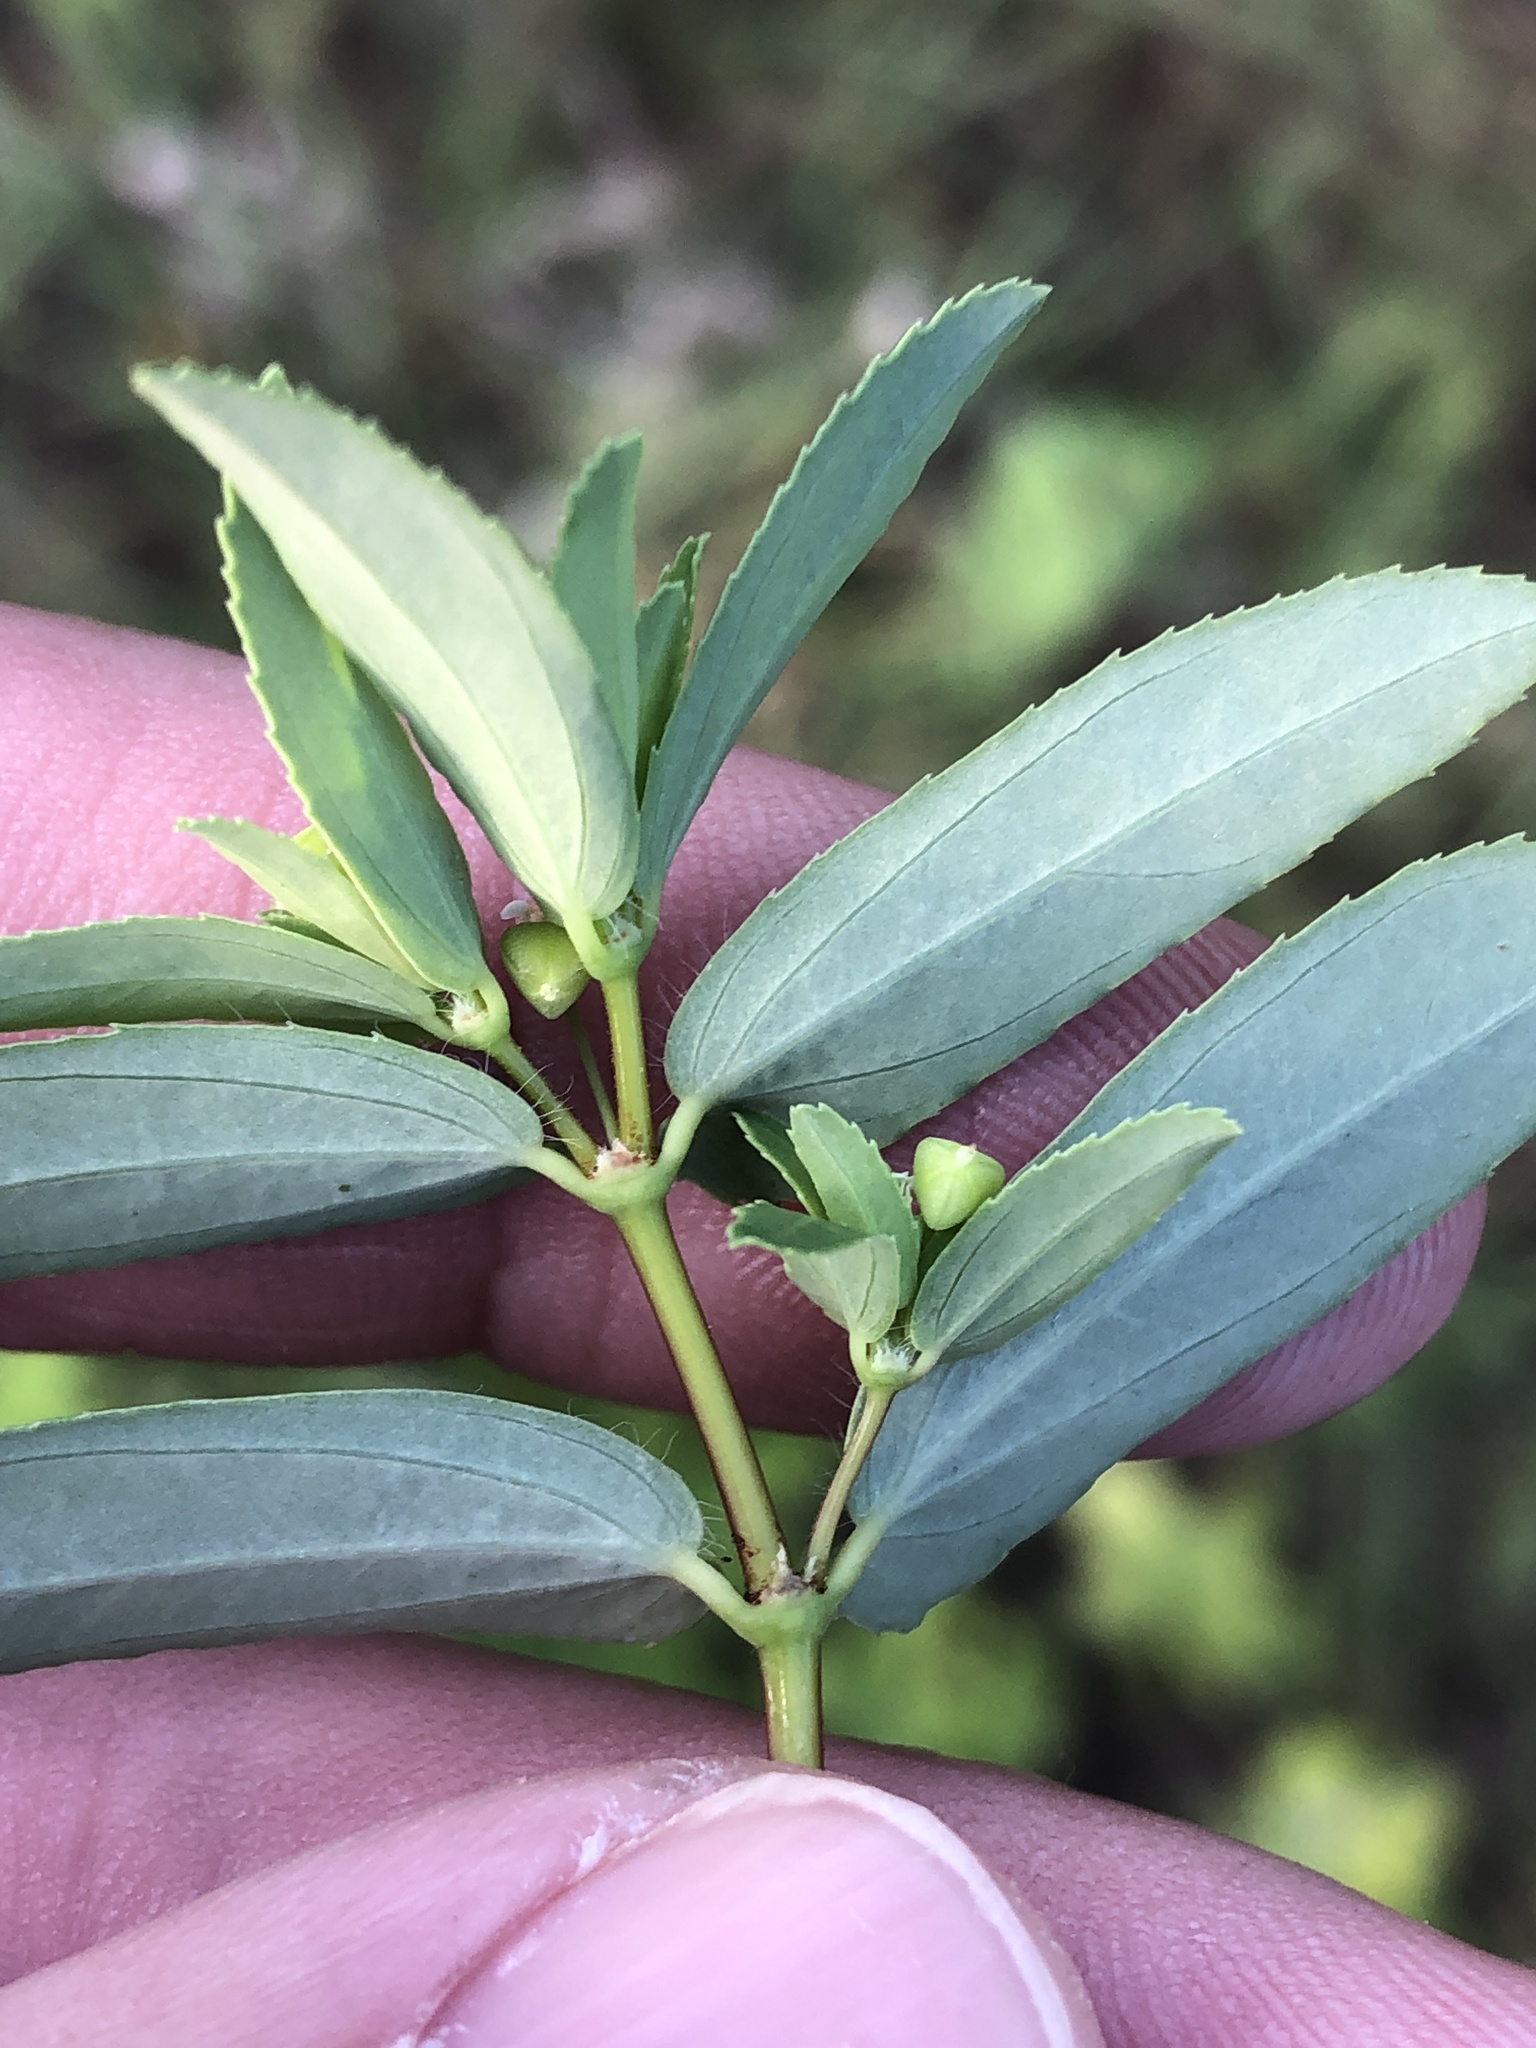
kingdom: Plantae
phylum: Tracheophyta
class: Magnoliopsida
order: Malpighiales
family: Euphorbiaceae
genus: Euphorbia
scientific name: Euphorbia nutans
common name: Eyebane
